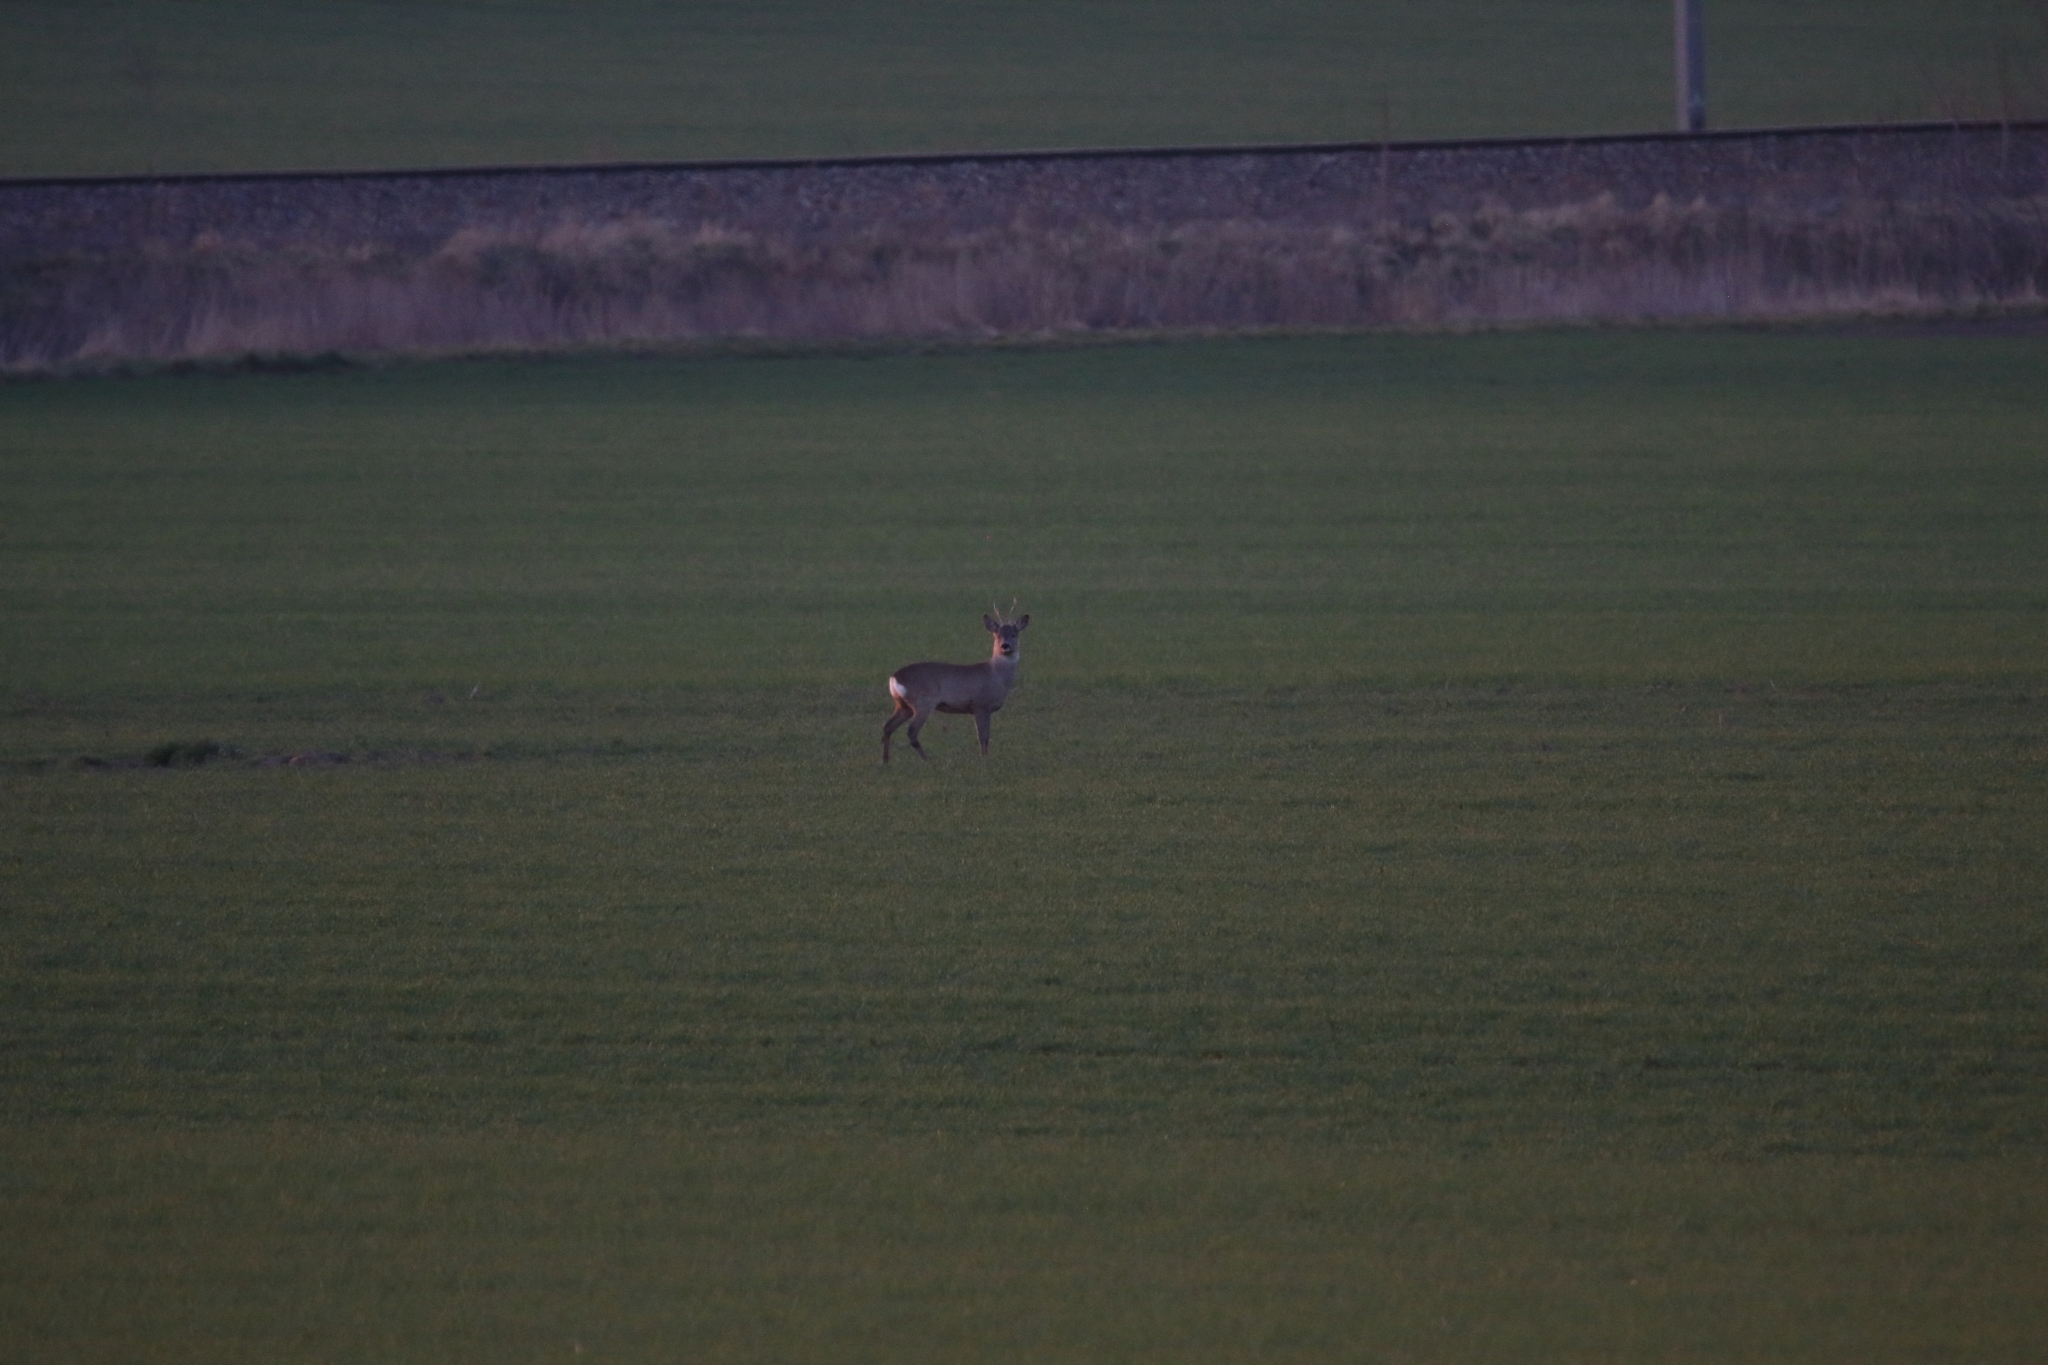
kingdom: Animalia
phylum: Chordata
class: Mammalia
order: Artiodactyla
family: Cervidae
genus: Capreolus
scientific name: Capreolus capreolus
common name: Western roe deer
